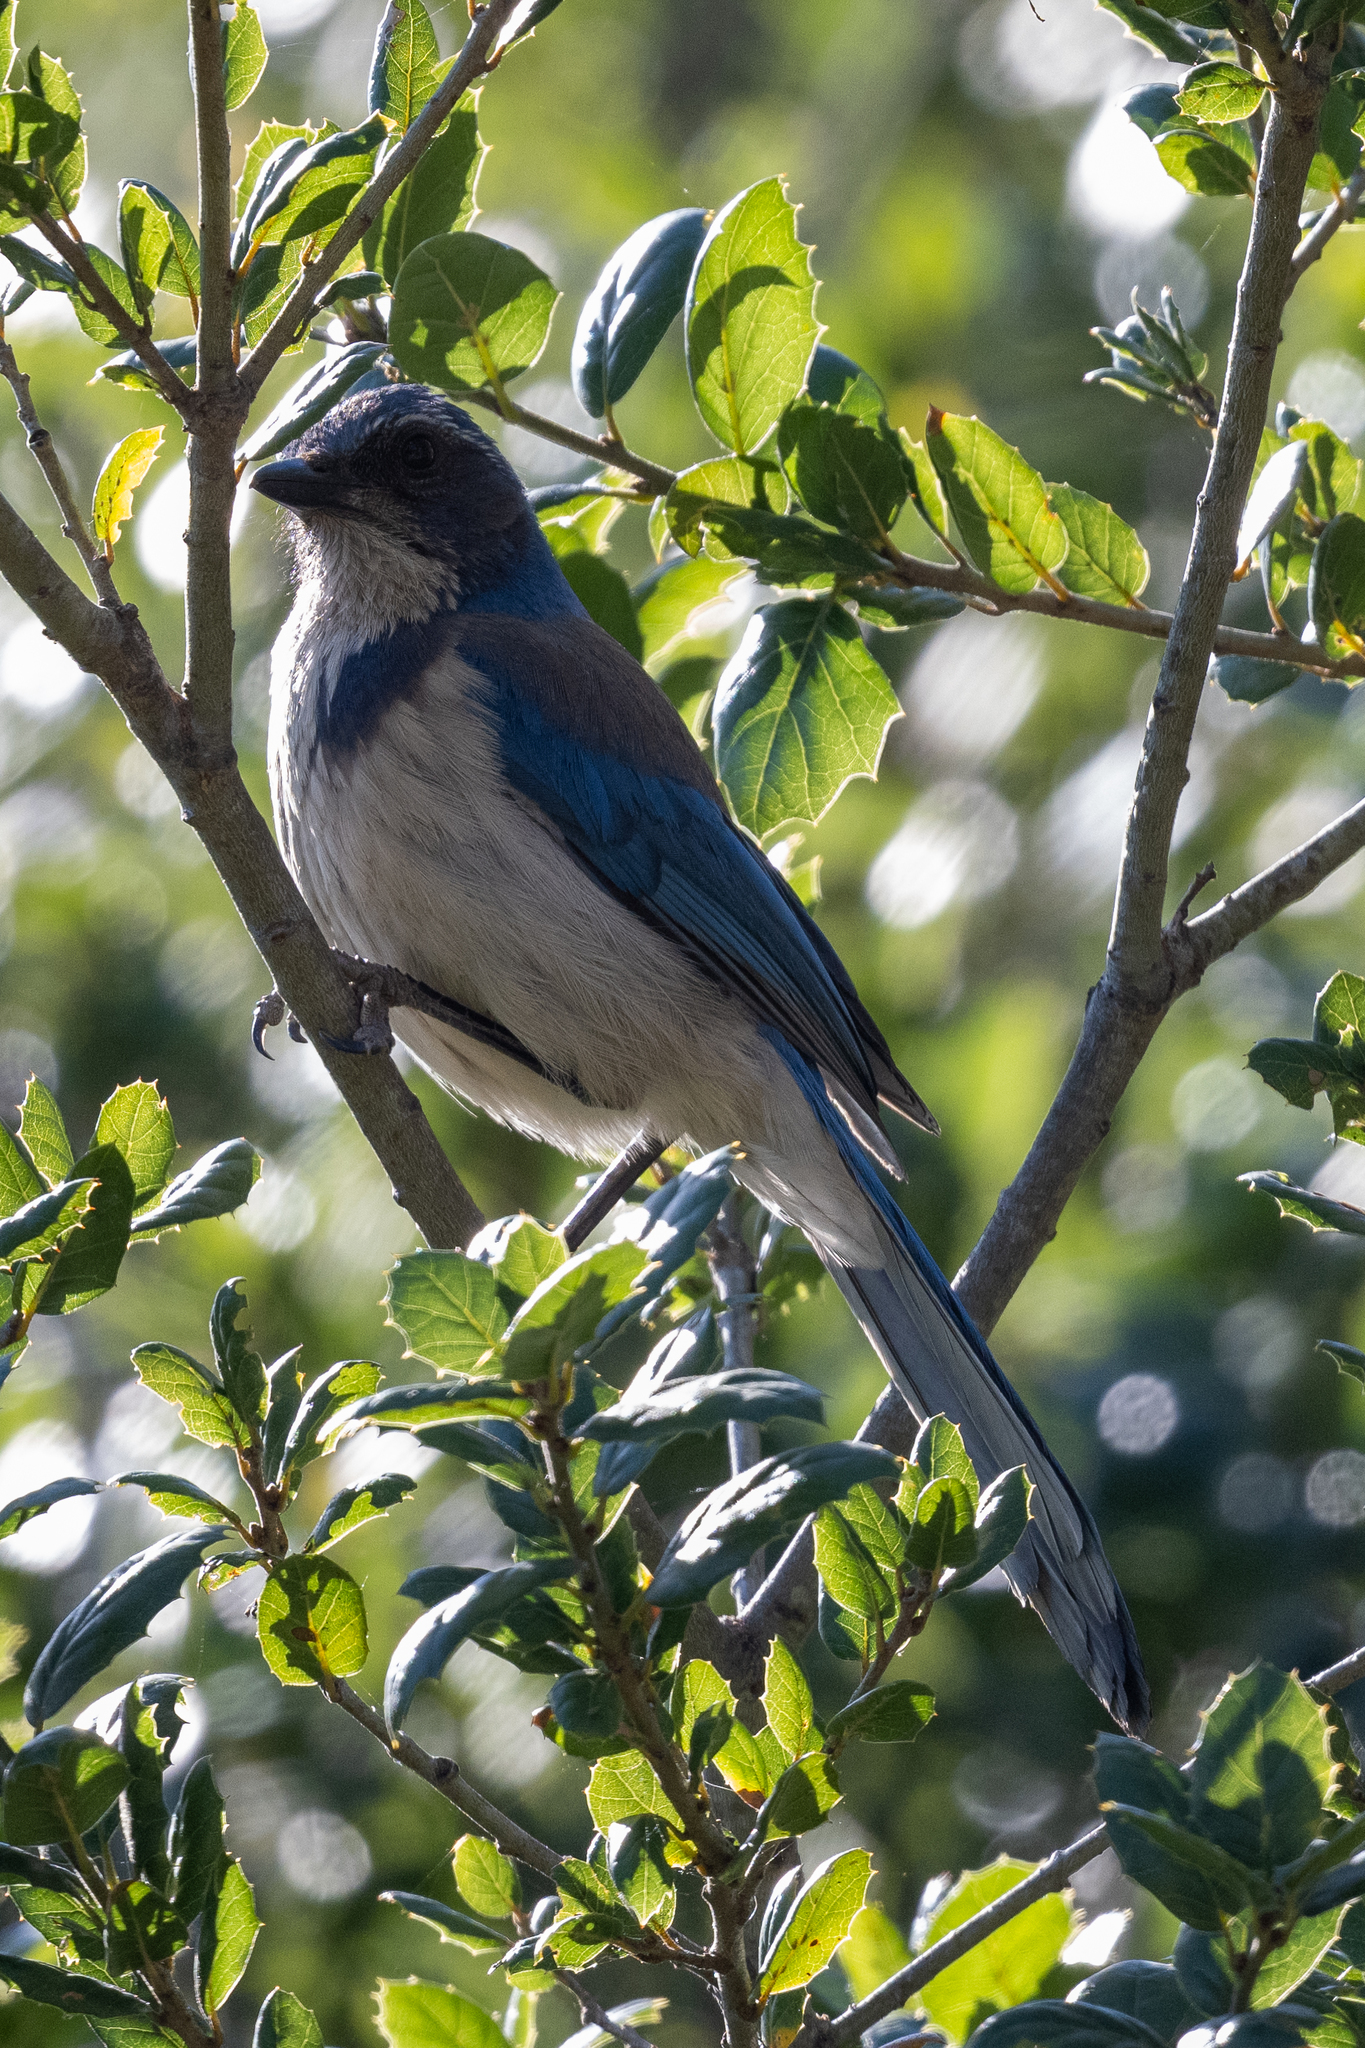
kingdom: Animalia
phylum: Chordata
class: Aves
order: Passeriformes
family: Corvidae
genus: Aphelocoma
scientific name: Aphelocoma californica
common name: California scrub-jay
